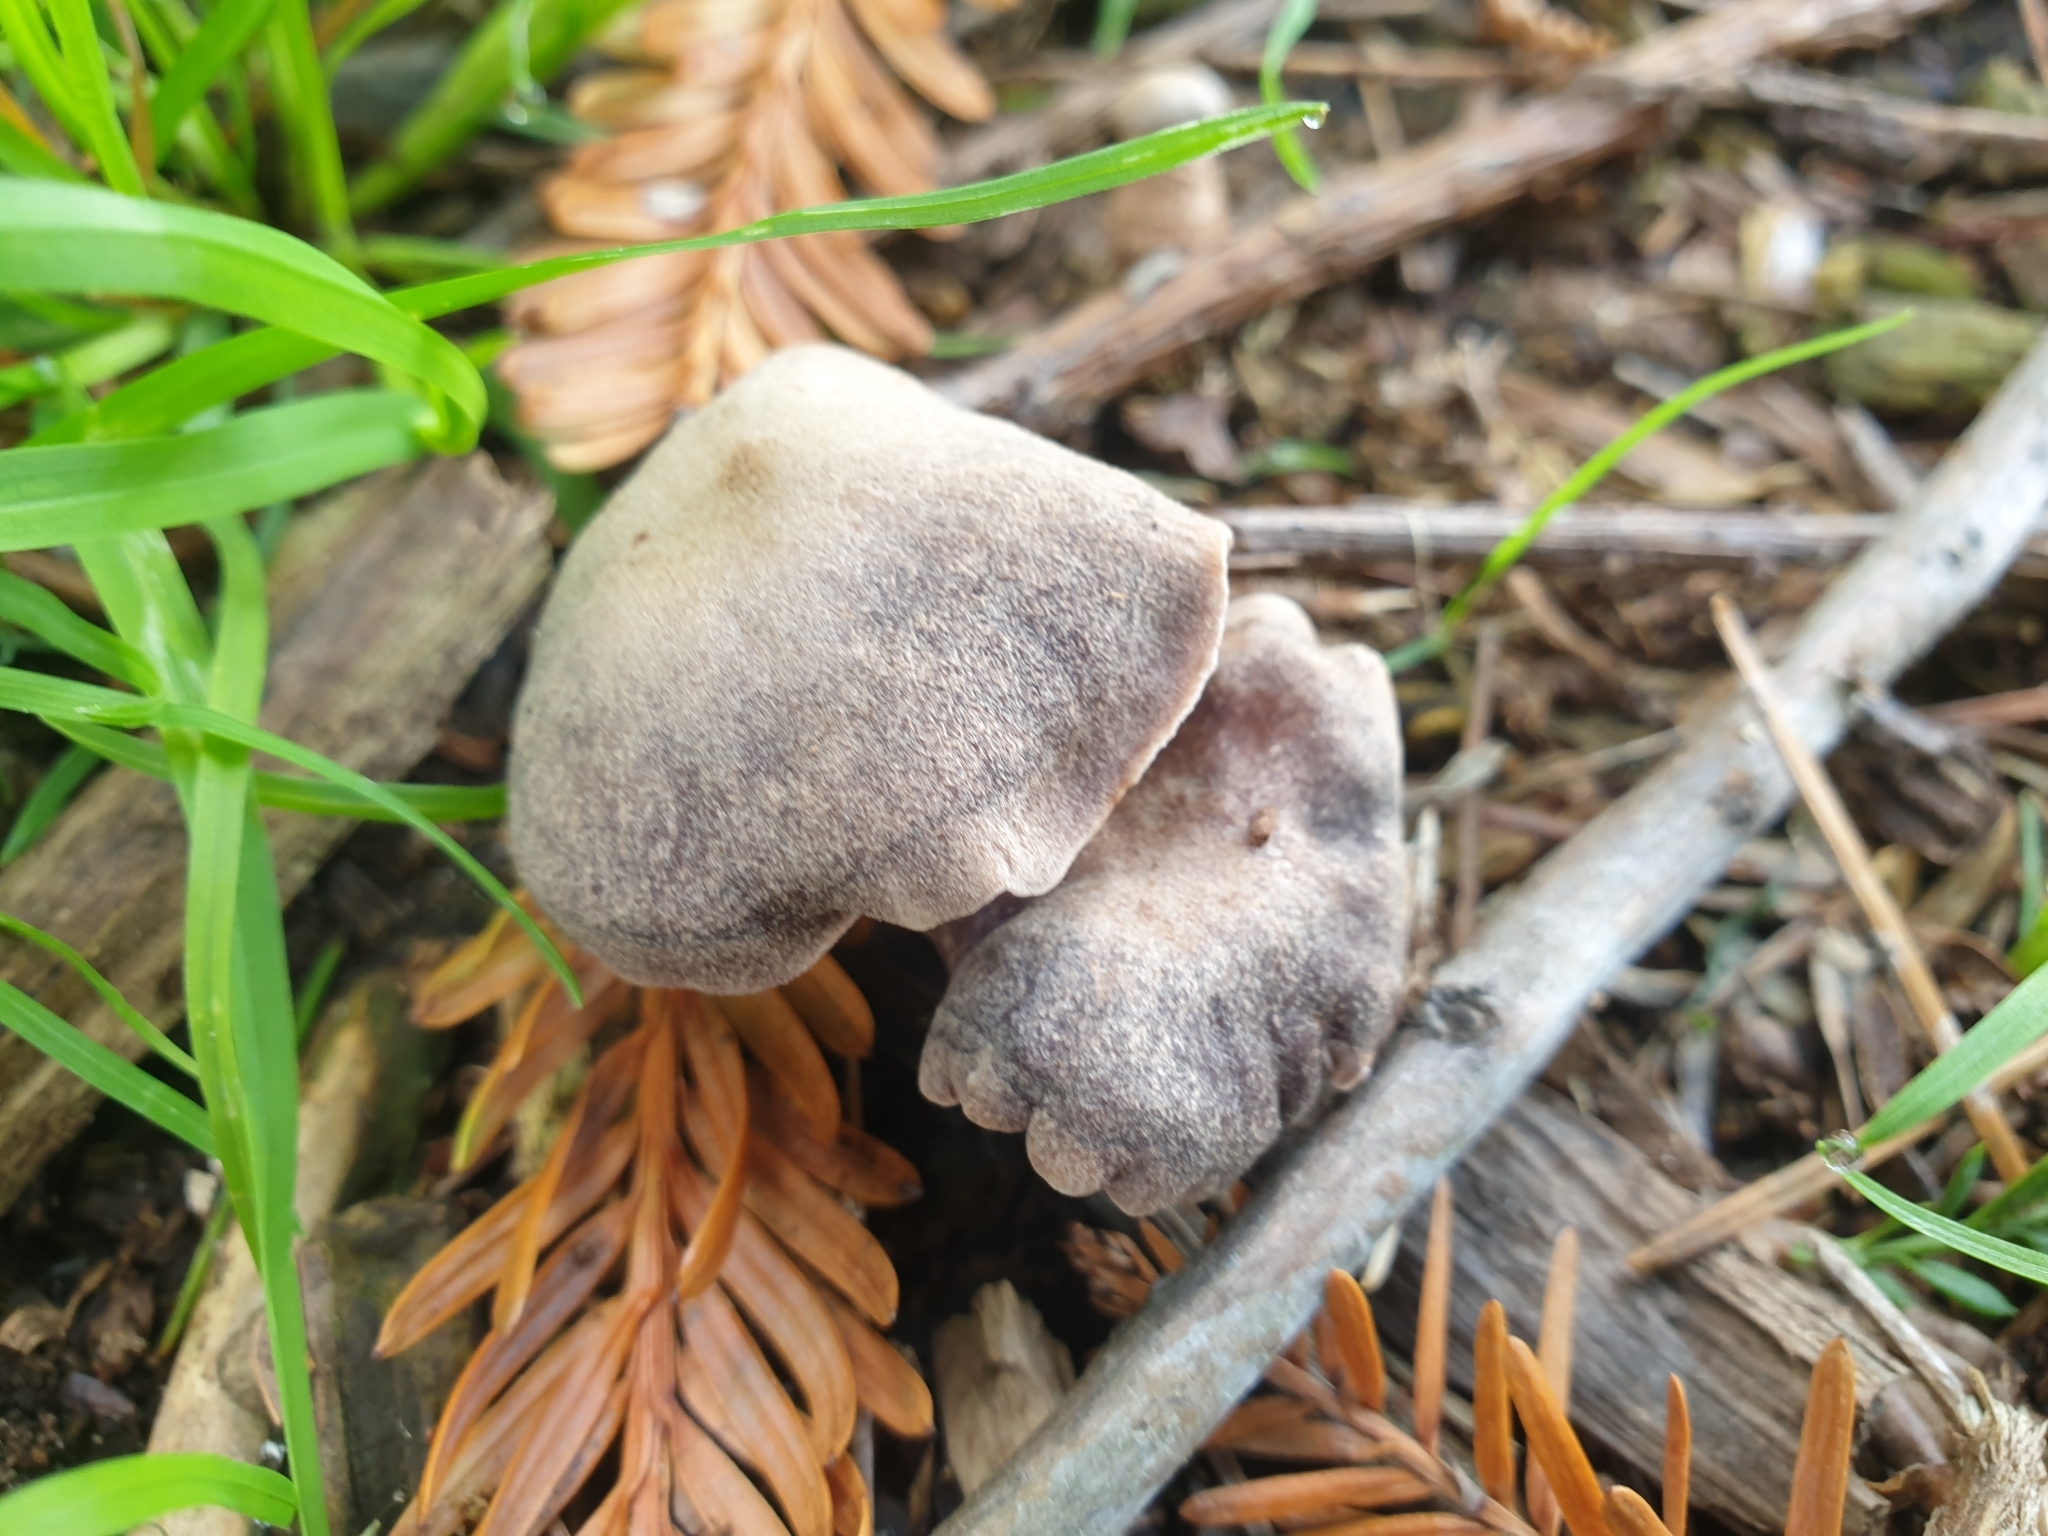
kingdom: Fungi
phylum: Basidiomycota
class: Agaricomycetes
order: Agaricales
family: Tricholomataceae
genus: Tricholoma
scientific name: Tricholoma terreum
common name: Grey knight
